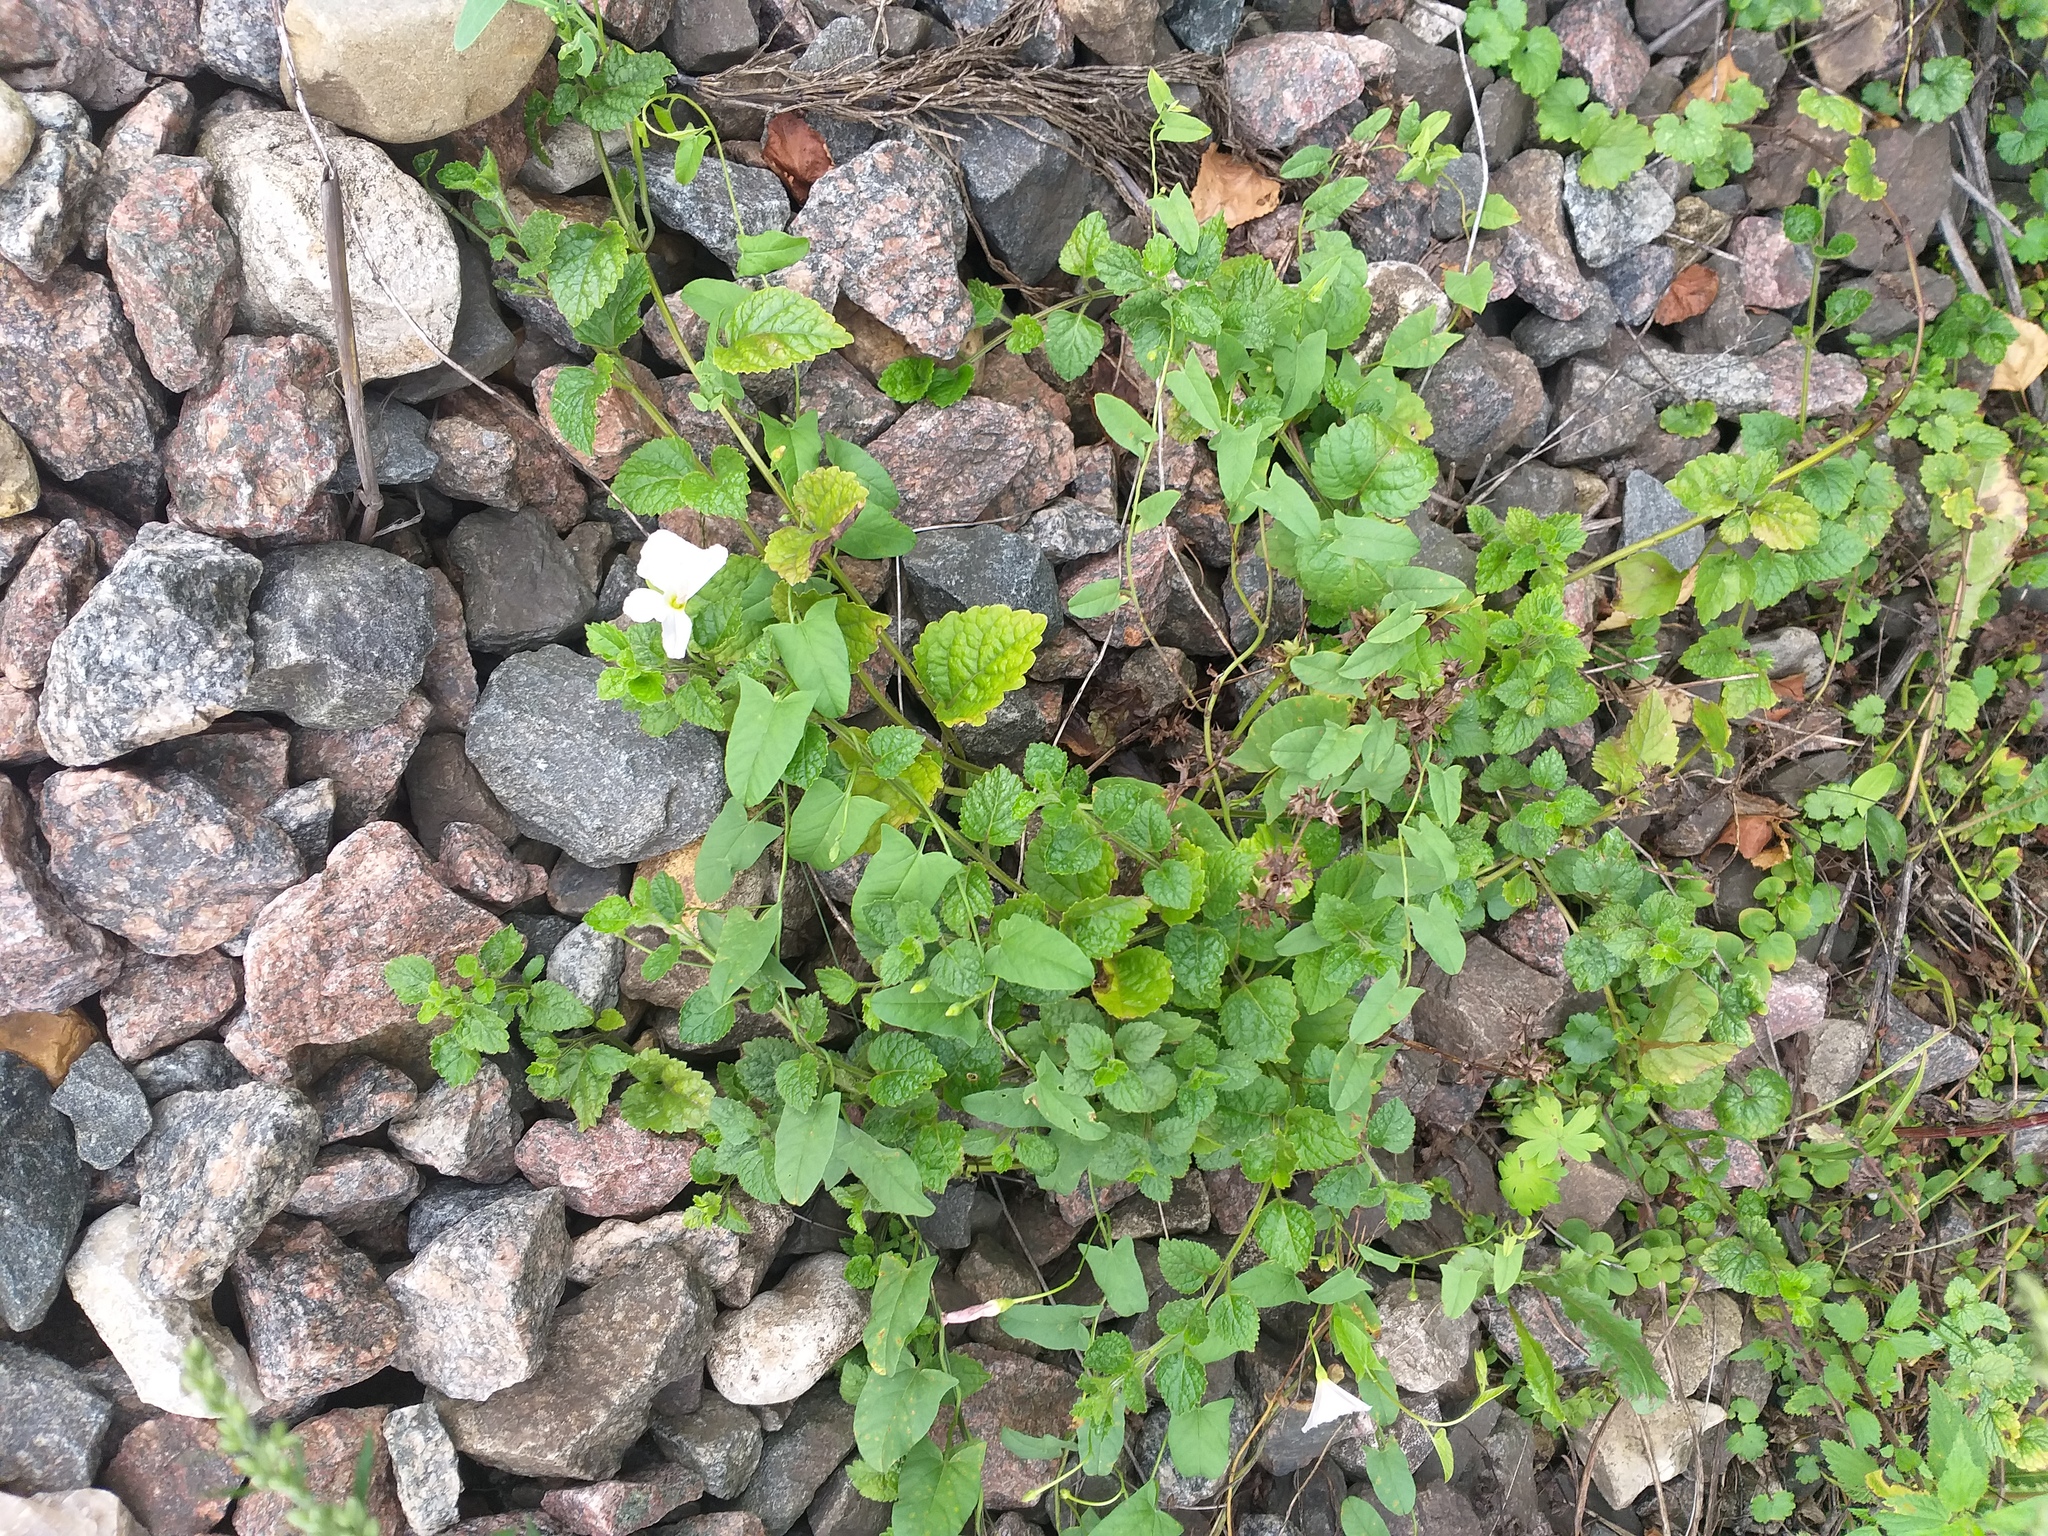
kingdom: Plantae
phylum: Tracheophyta
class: Magnoliopsida
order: Lamiales
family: Lamiaceae
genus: Lamium
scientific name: Lamium galeobdolon
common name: Yellow archangel
